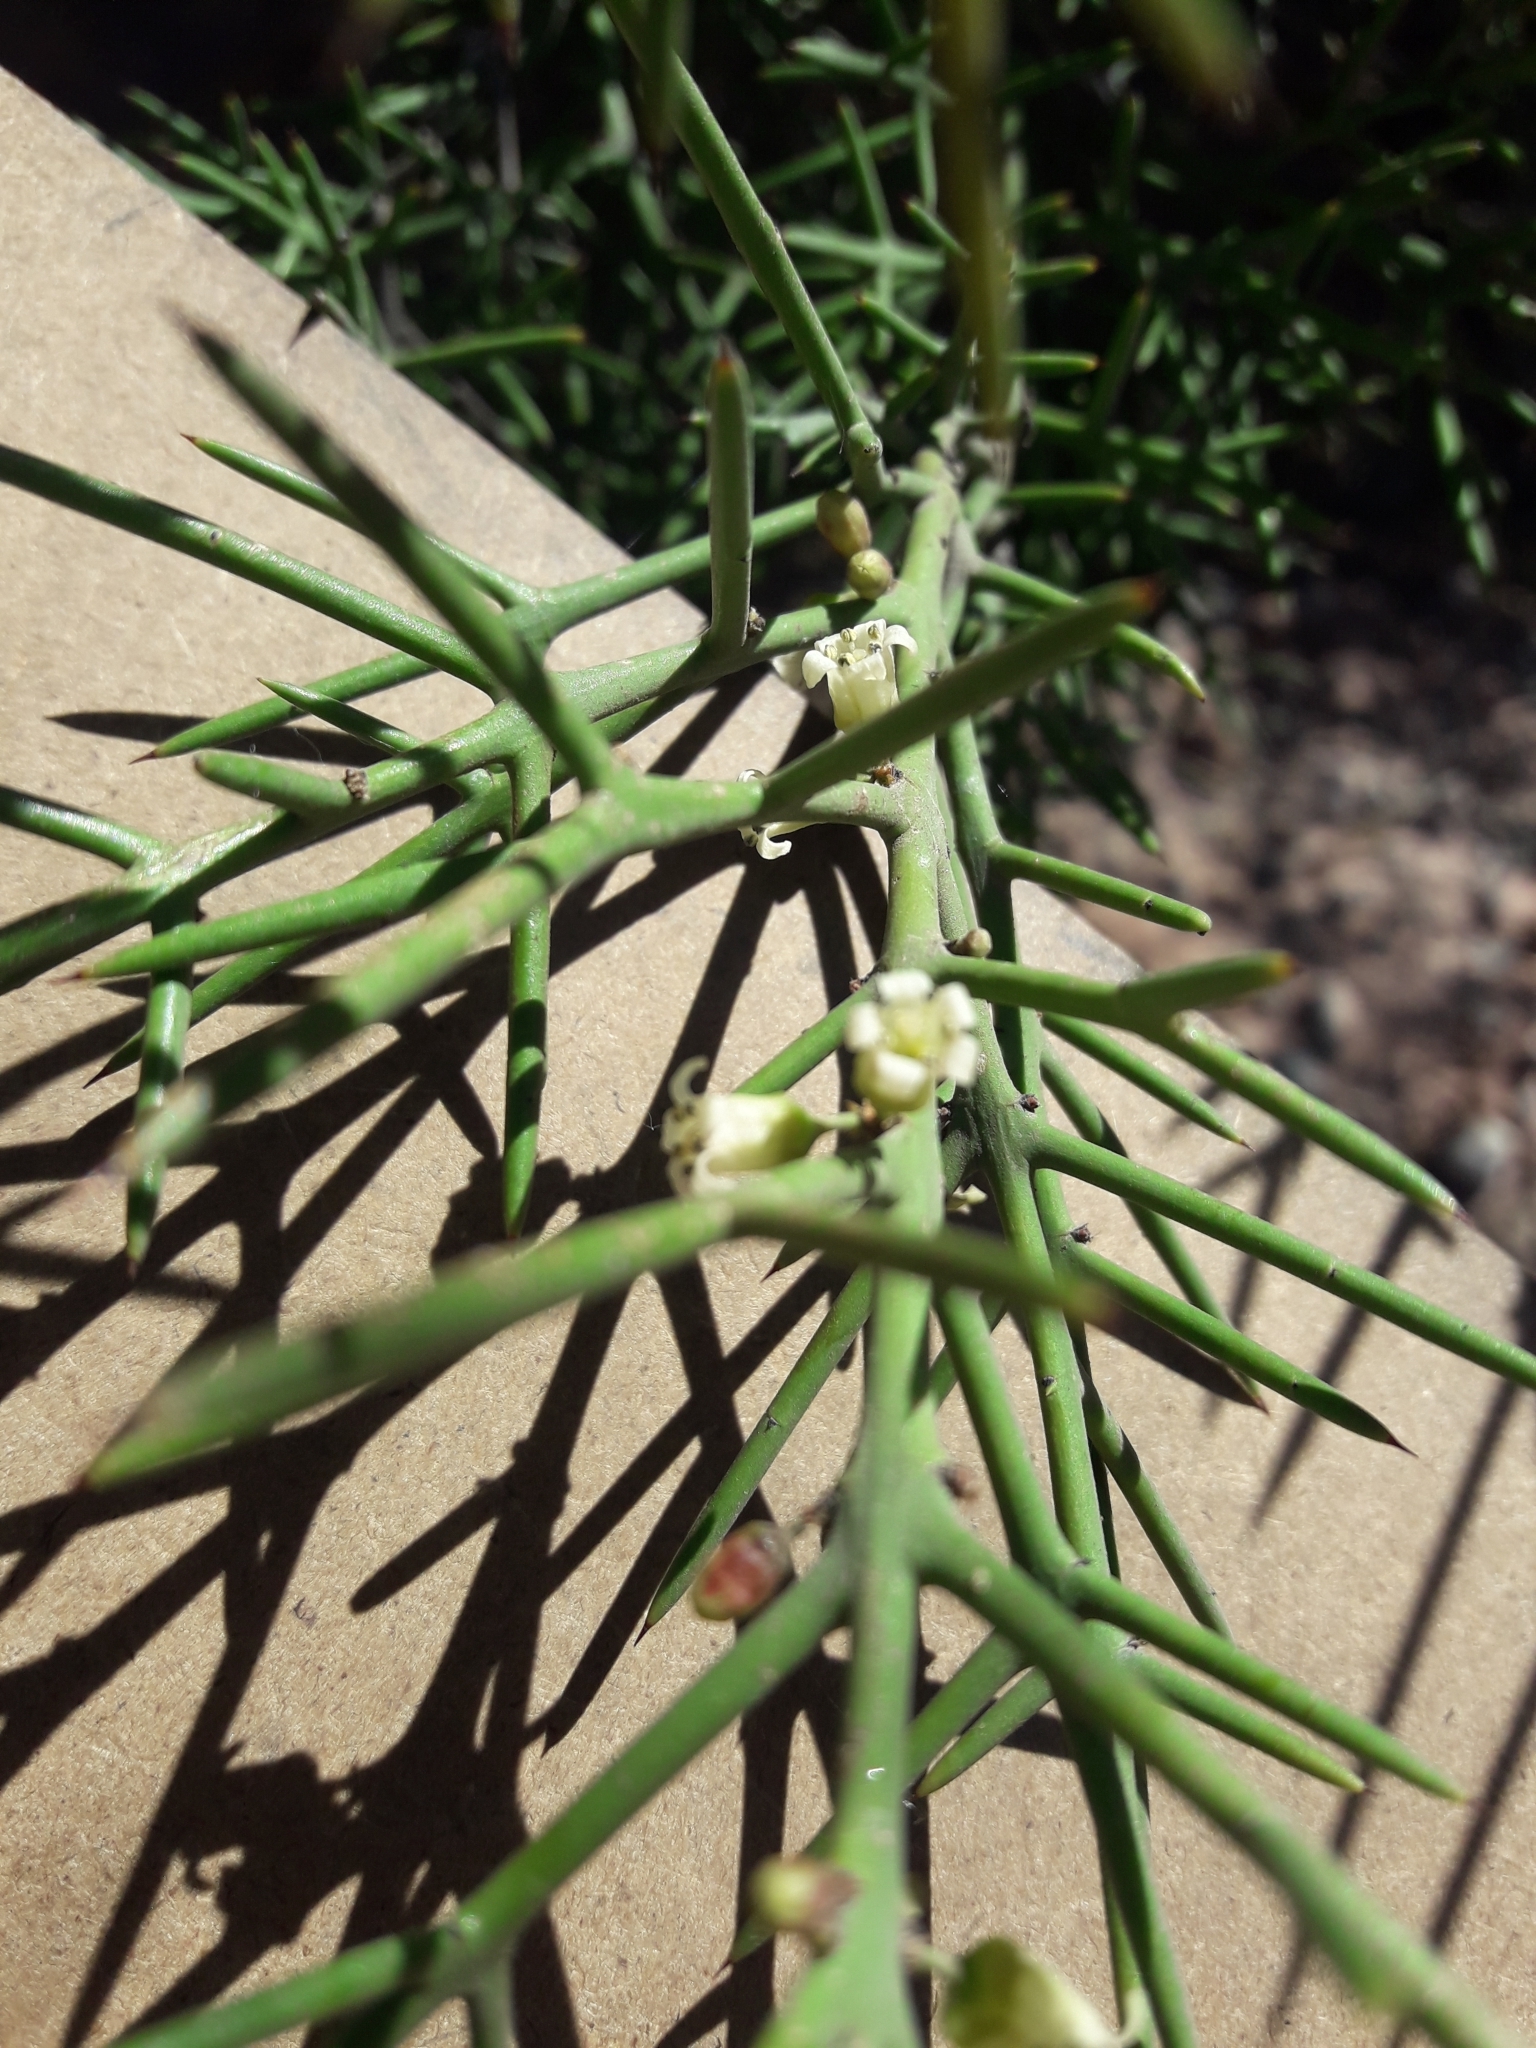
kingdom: Plantae
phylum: Tracheophyta
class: Magnoliopsida
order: Rosales
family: Rhamnaceae
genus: Colletia
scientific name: Colletia spinosissima
